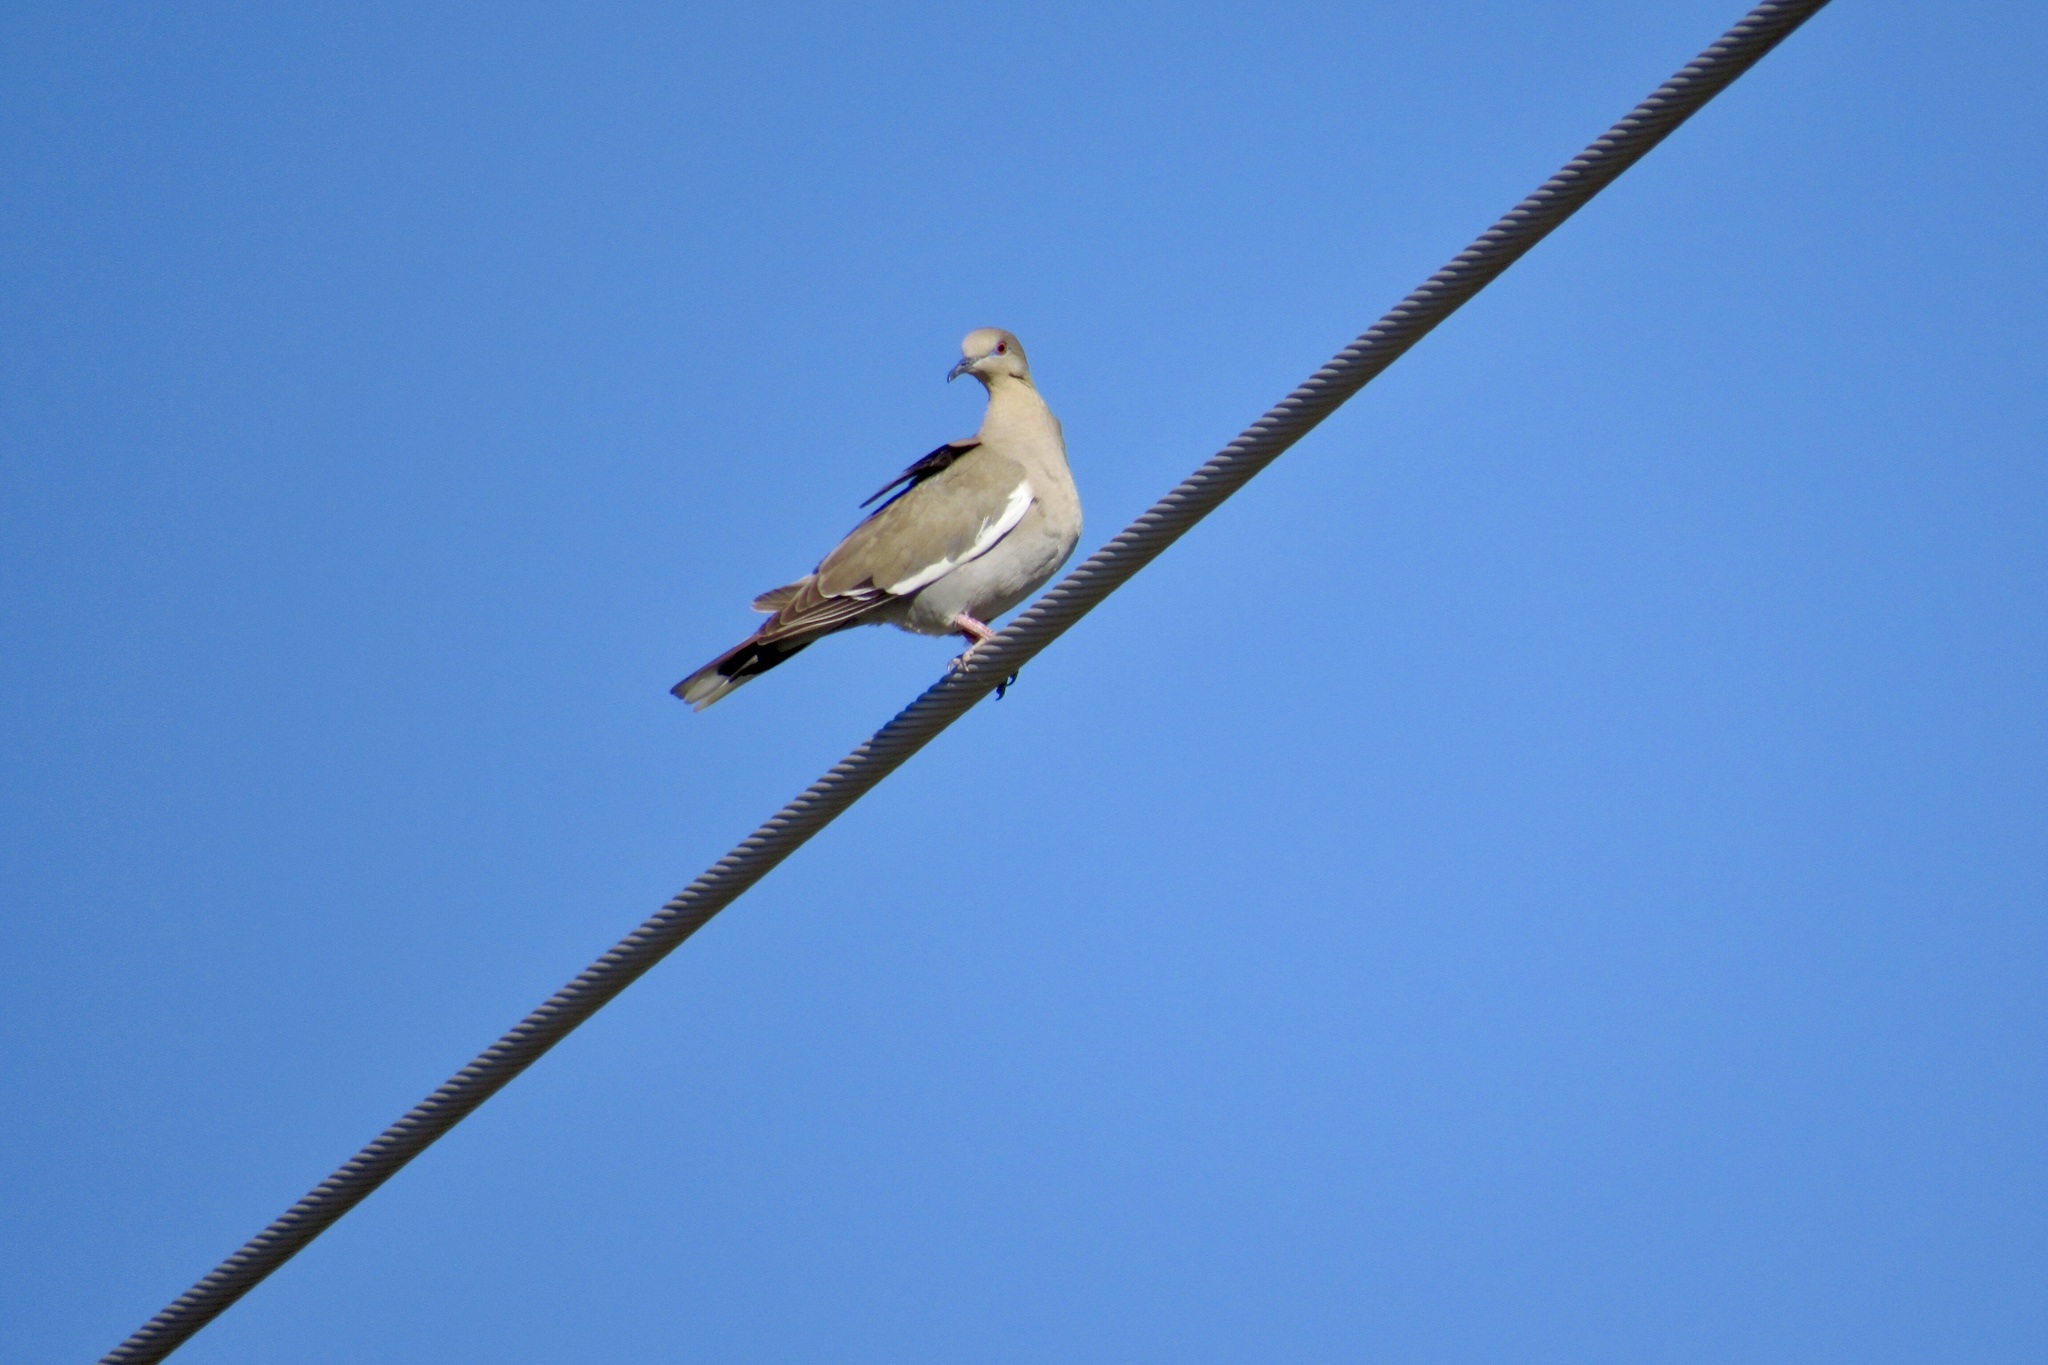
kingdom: Animalia
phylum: Chordata
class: Aves
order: Columbiformes
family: Columbidae
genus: Zenaida
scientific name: Zenaida asiatica
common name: White-winged dove
